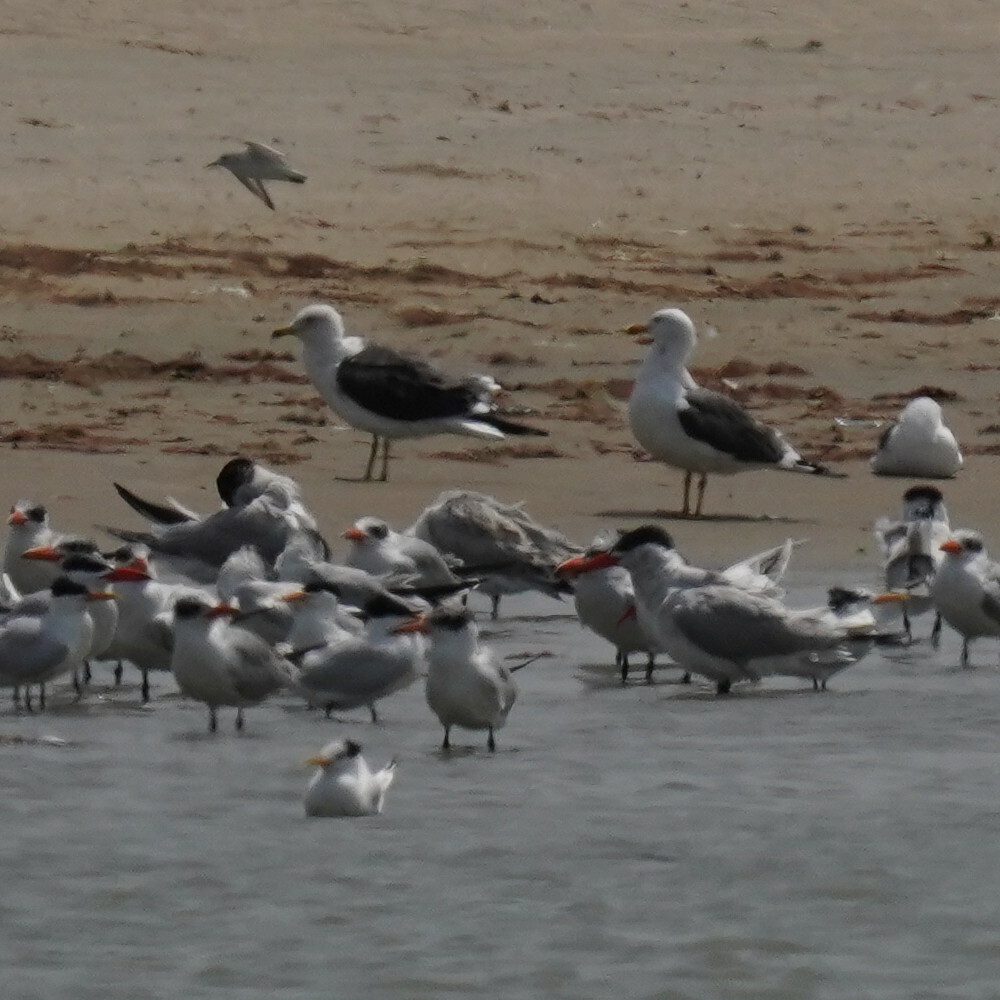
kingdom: Animalia
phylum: Chordata
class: Aves
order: Charadriiformes
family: Laridae
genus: Larus
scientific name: Larus fuscus
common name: Lesser black-backed gull
